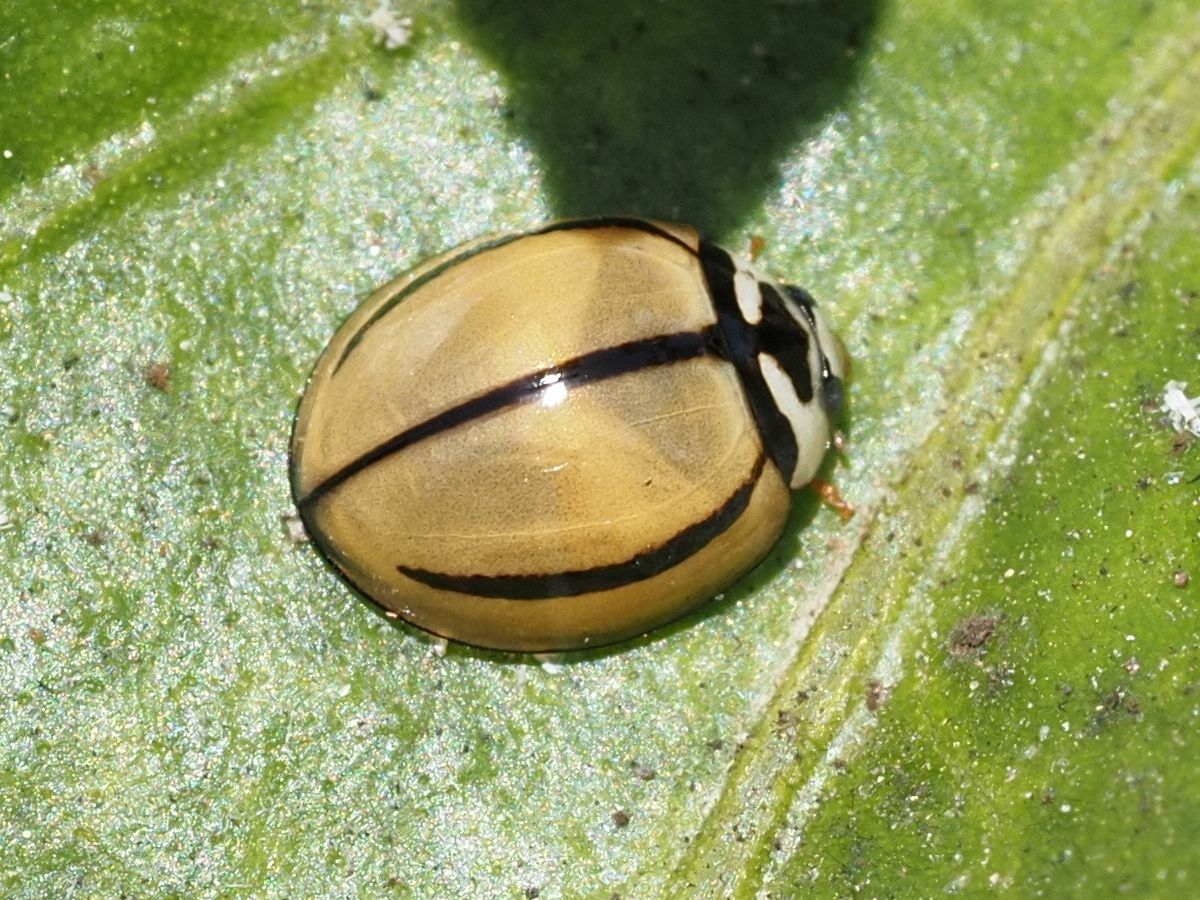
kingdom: Animalia
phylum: Arthropoda
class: Insecta
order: Coleoptera
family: Coccinellidae
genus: Cheilomenes
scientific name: Cheilomenes propinqua
